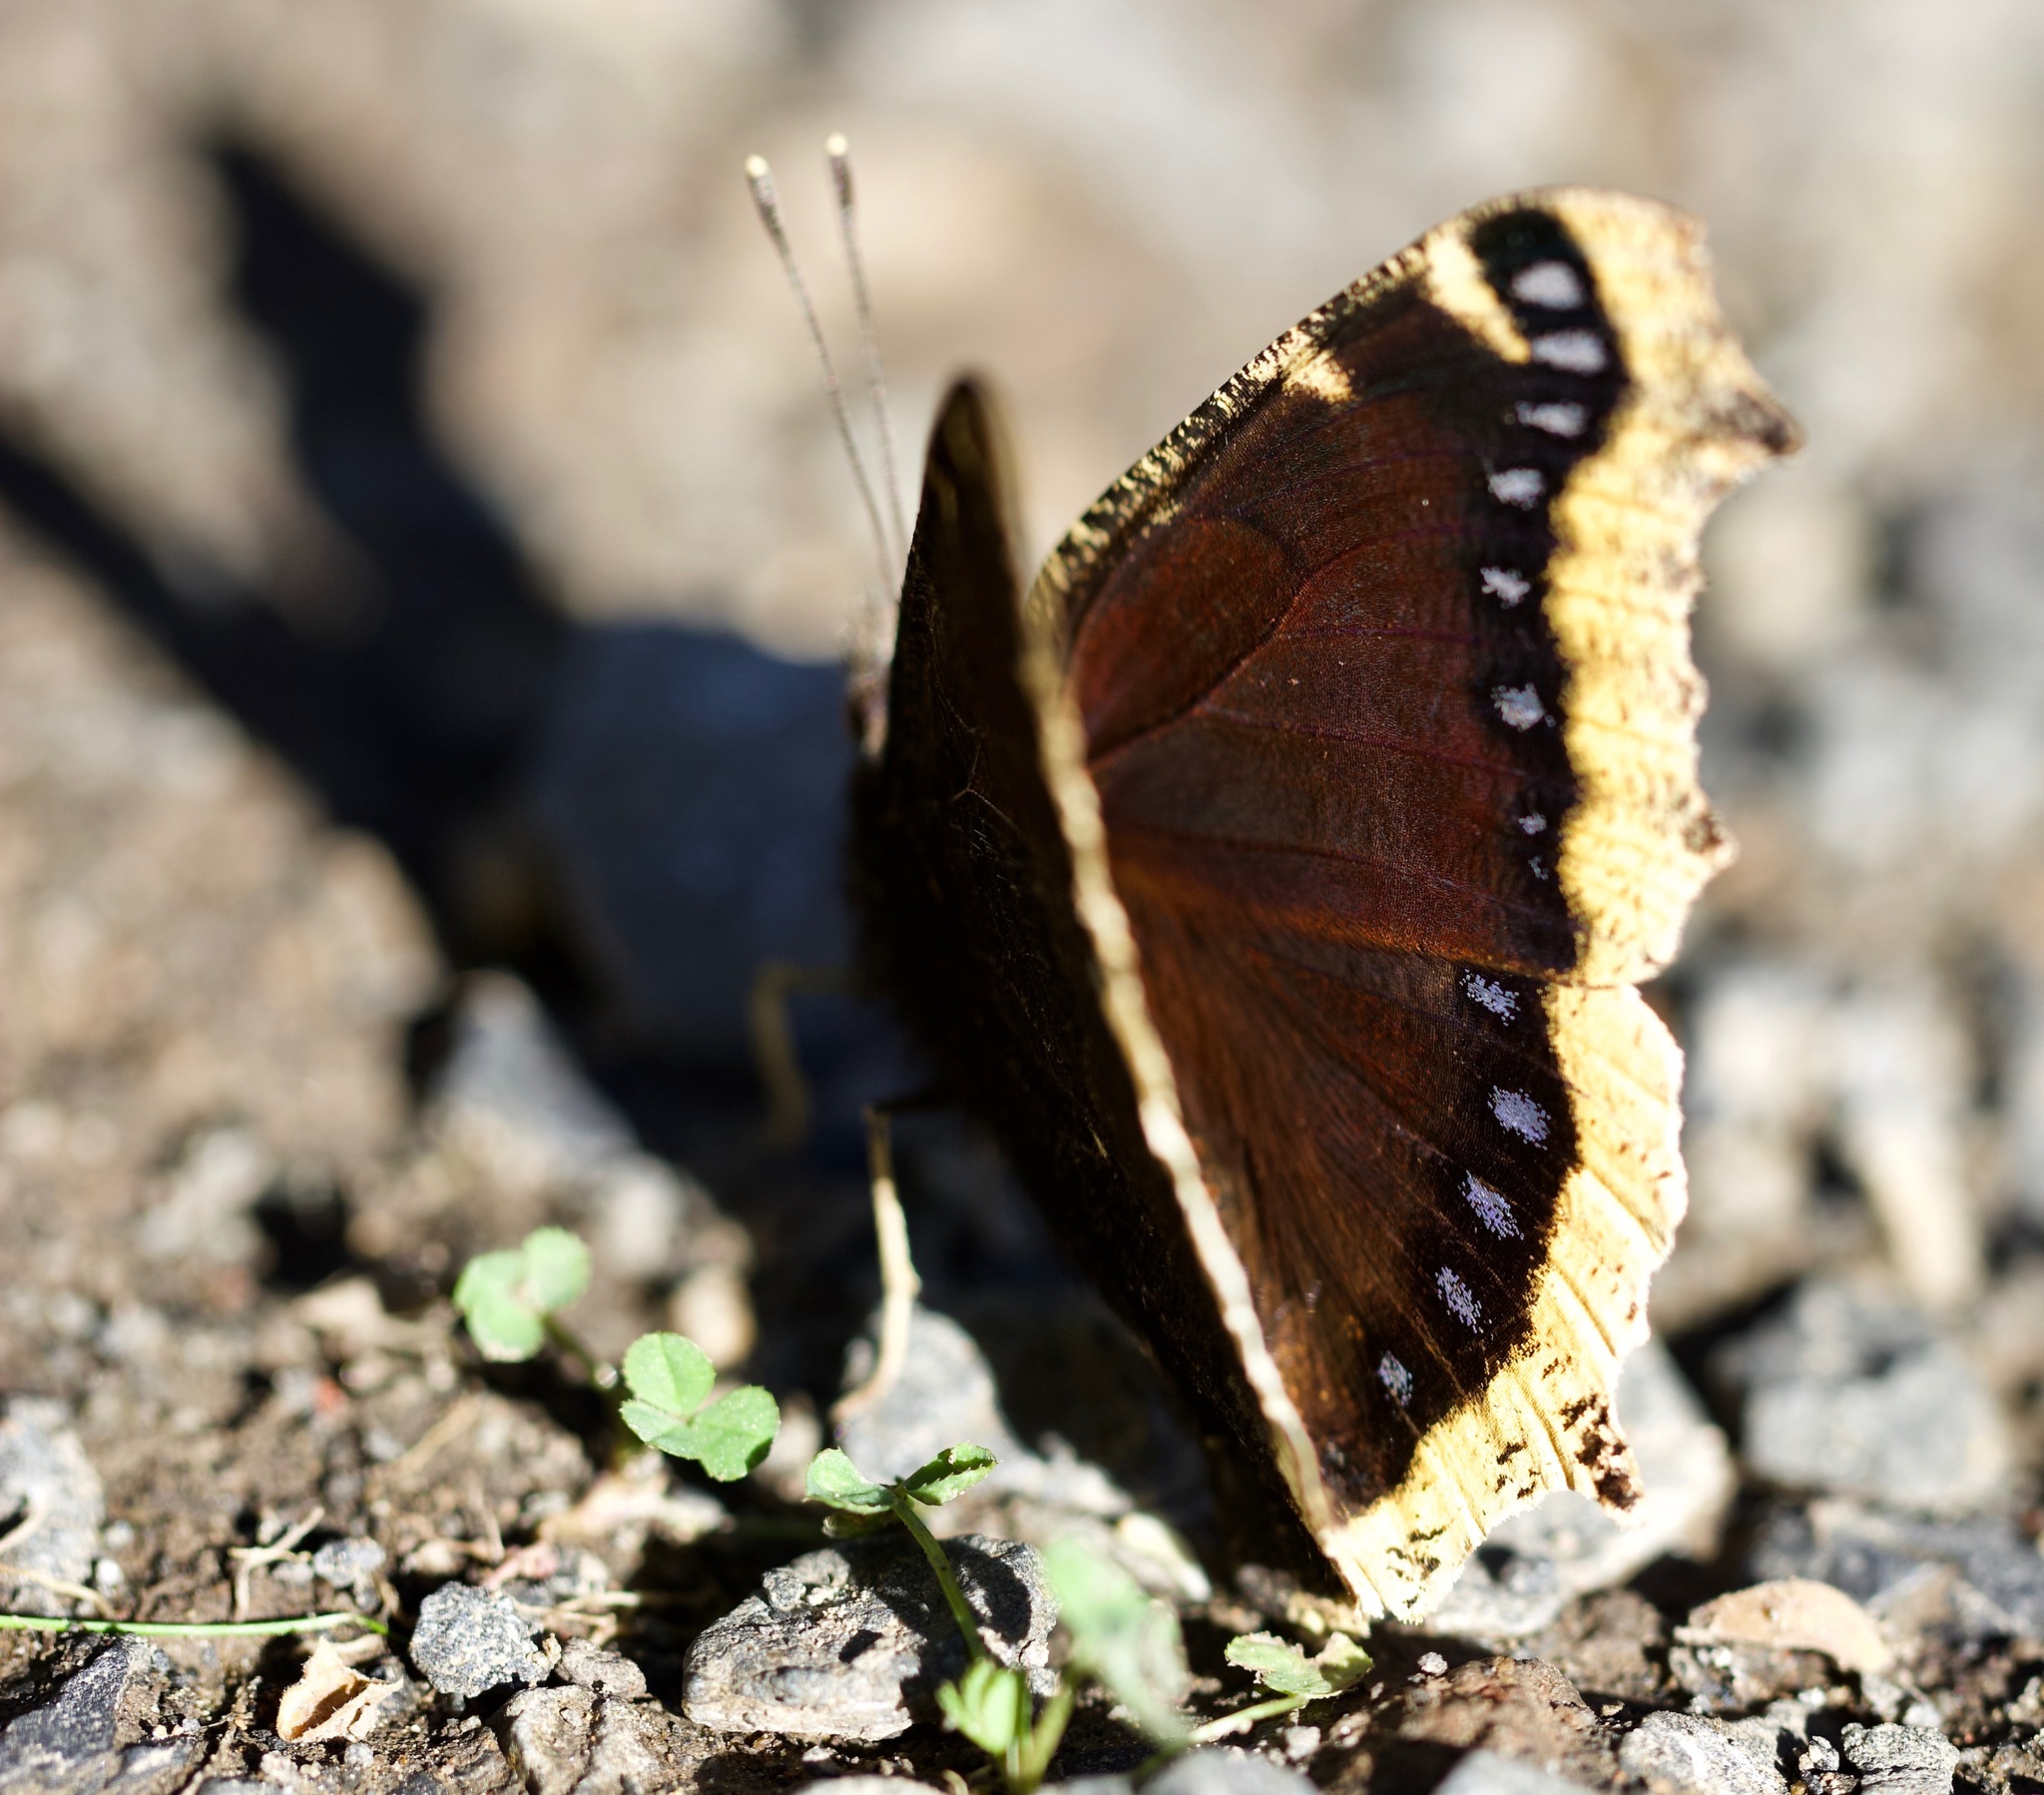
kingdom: Animalia
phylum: Arthropoda
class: Insecta
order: Lepidoptera
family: Nymphalidae
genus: Nymphalis
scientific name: Nymphalis antiopa
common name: Camberwell beauty
